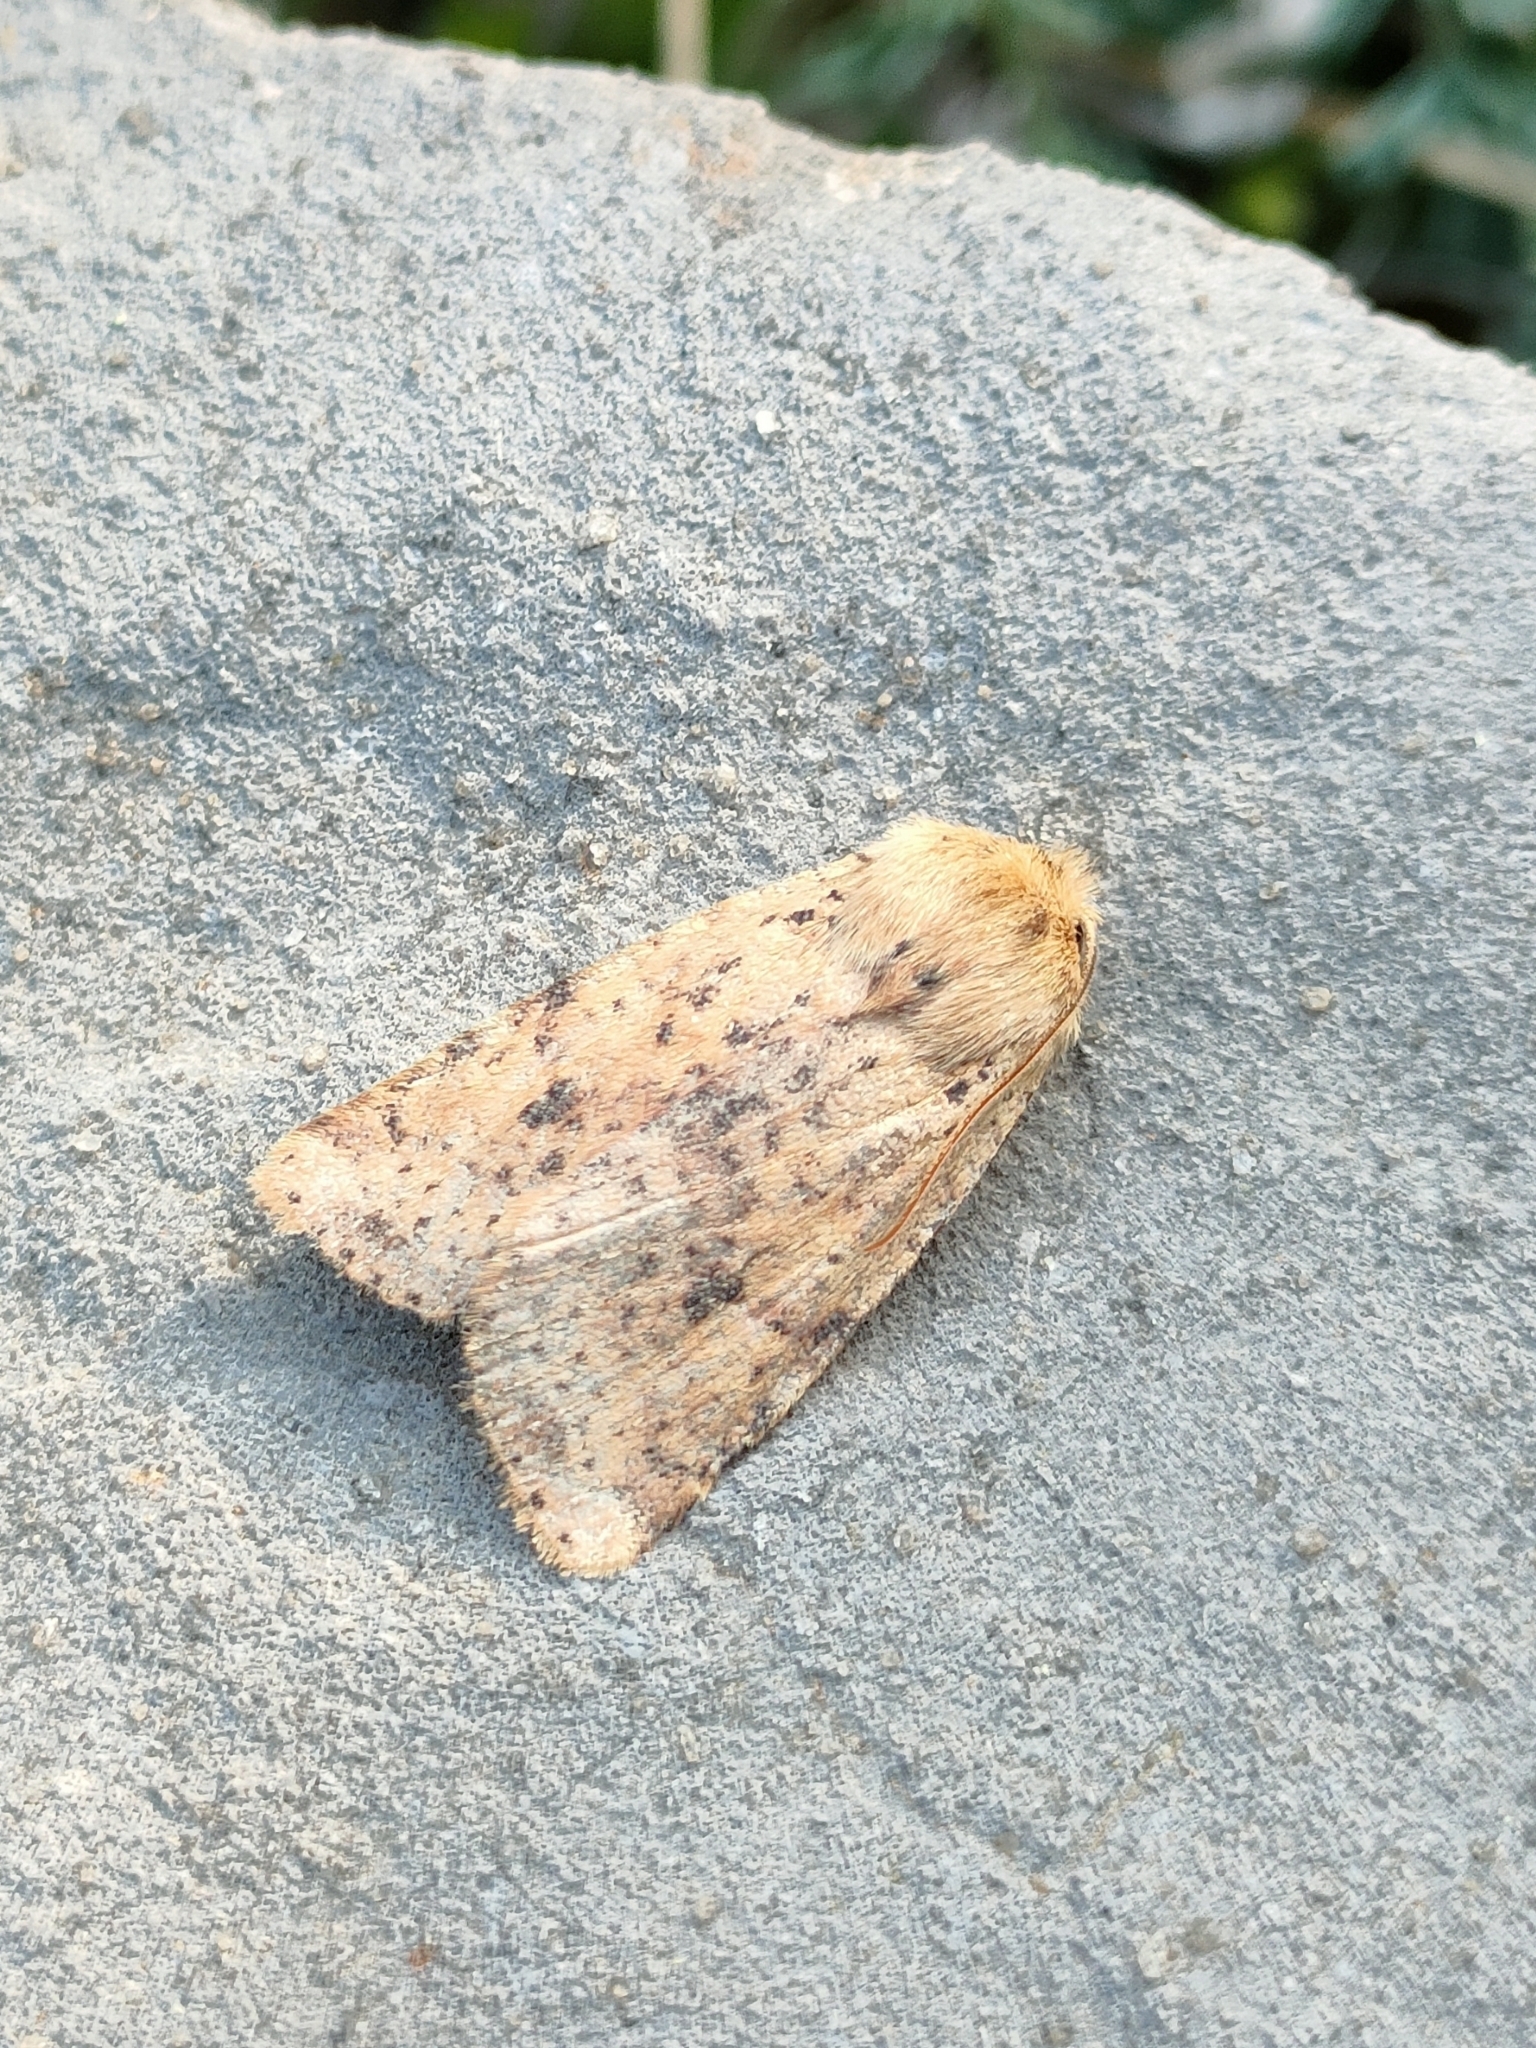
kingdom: Animalia
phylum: Arthropoda
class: Insecta
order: Lepidoptera
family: Noctuidae
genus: Conistra
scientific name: Conistra staudingeri
